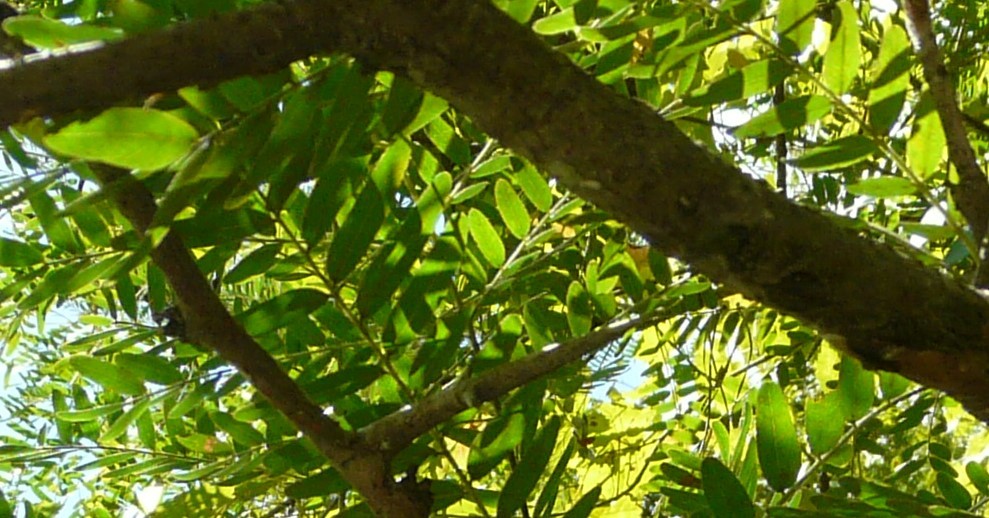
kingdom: Plantae
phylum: Tracheophyta
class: Magnoliopsida
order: Fabales
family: Fabaceae
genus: Gleditsia
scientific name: Gleditsia triacanthos
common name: Common honeylocust
